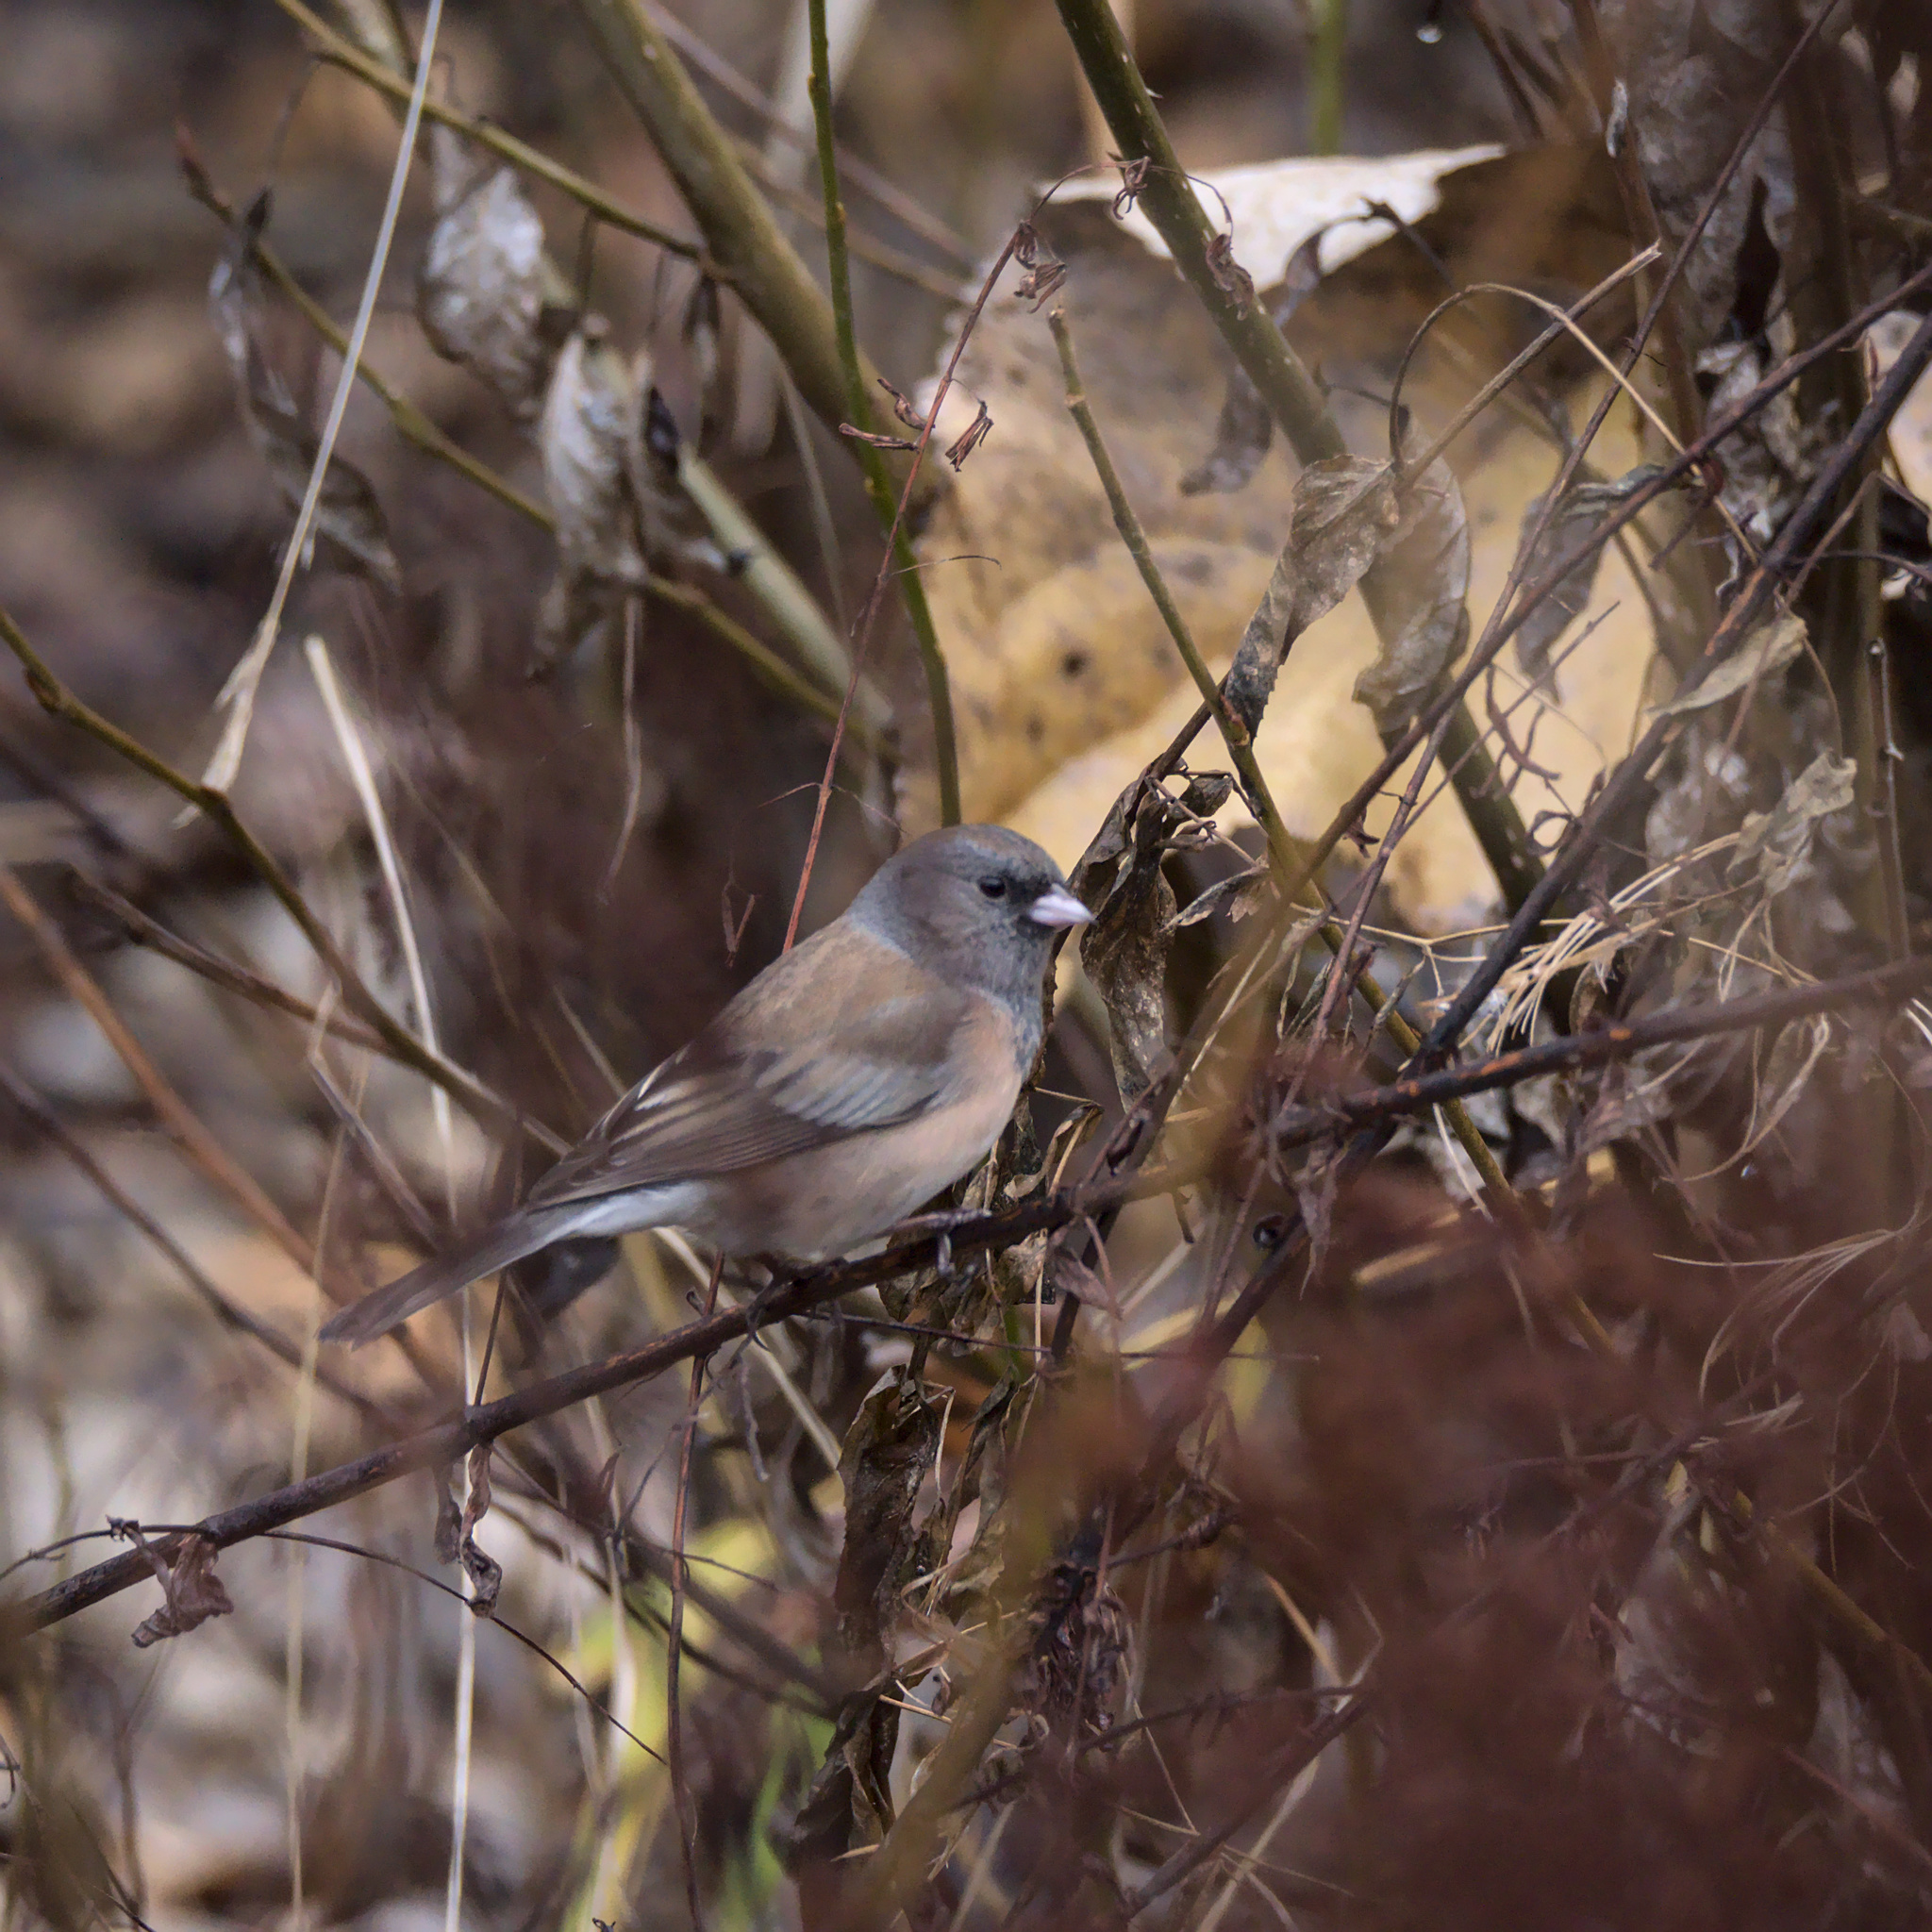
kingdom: Animalia
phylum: Chordata
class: Aves
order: Passeriformes
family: Passerellidae
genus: Junco
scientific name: Junco hyemalis
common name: Dark-eyed junco
